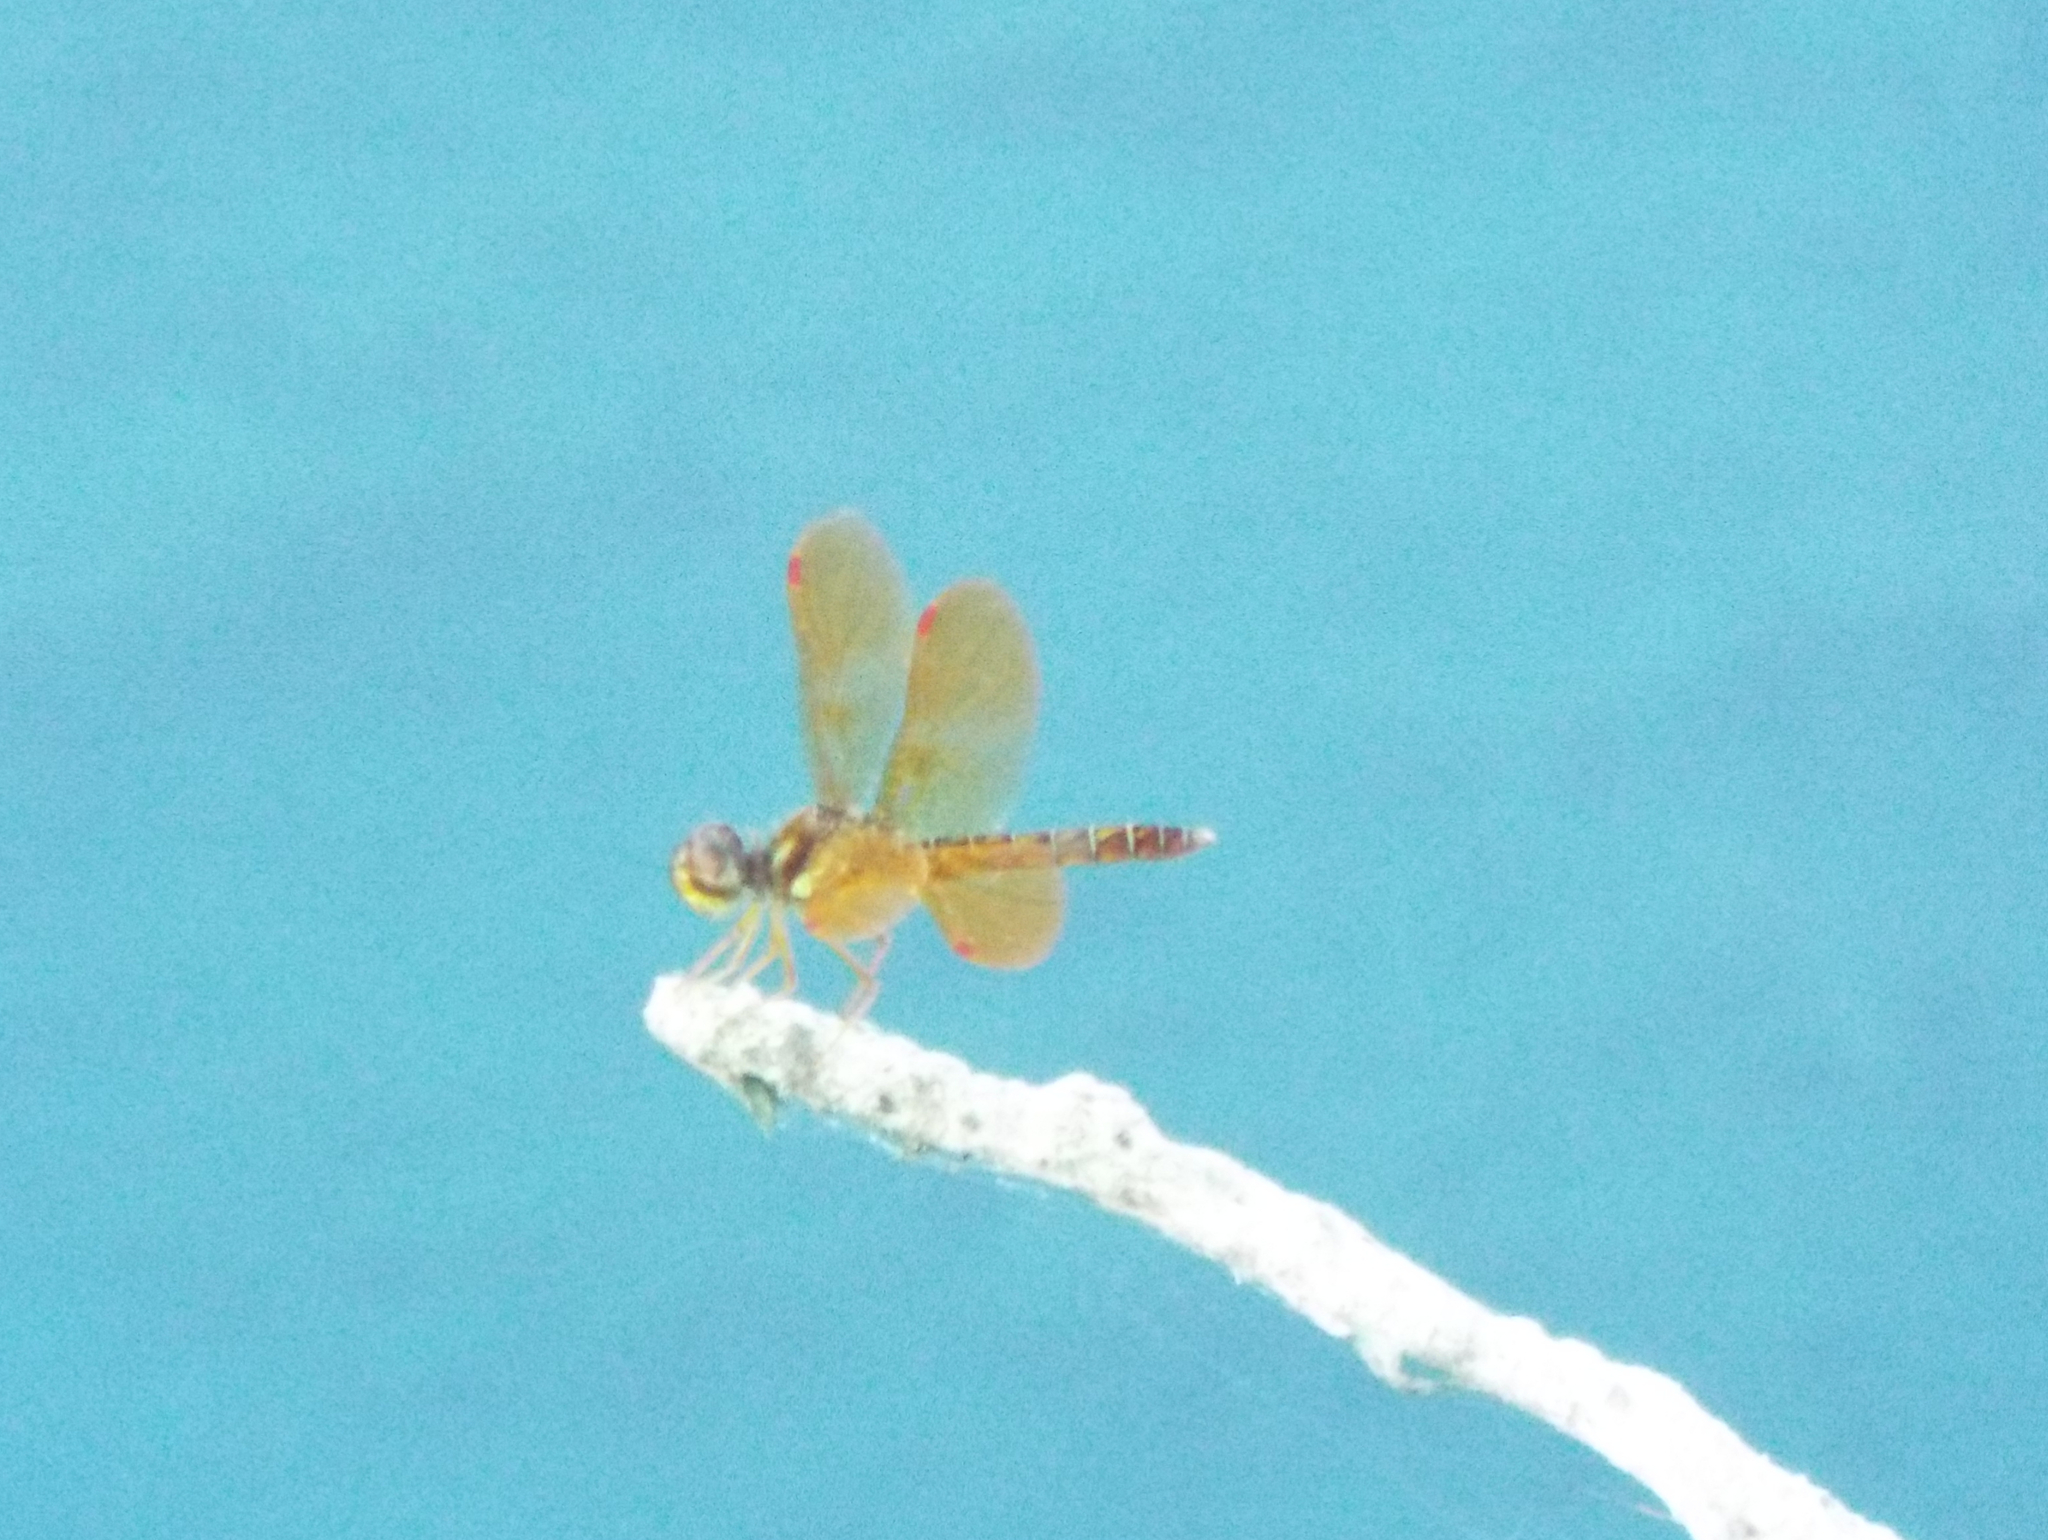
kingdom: Animalia
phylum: Arthropoda
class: Insecta
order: Odonata
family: Libellulidae
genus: Perithemis
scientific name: Perithemis tenera
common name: Eastern amberwing
